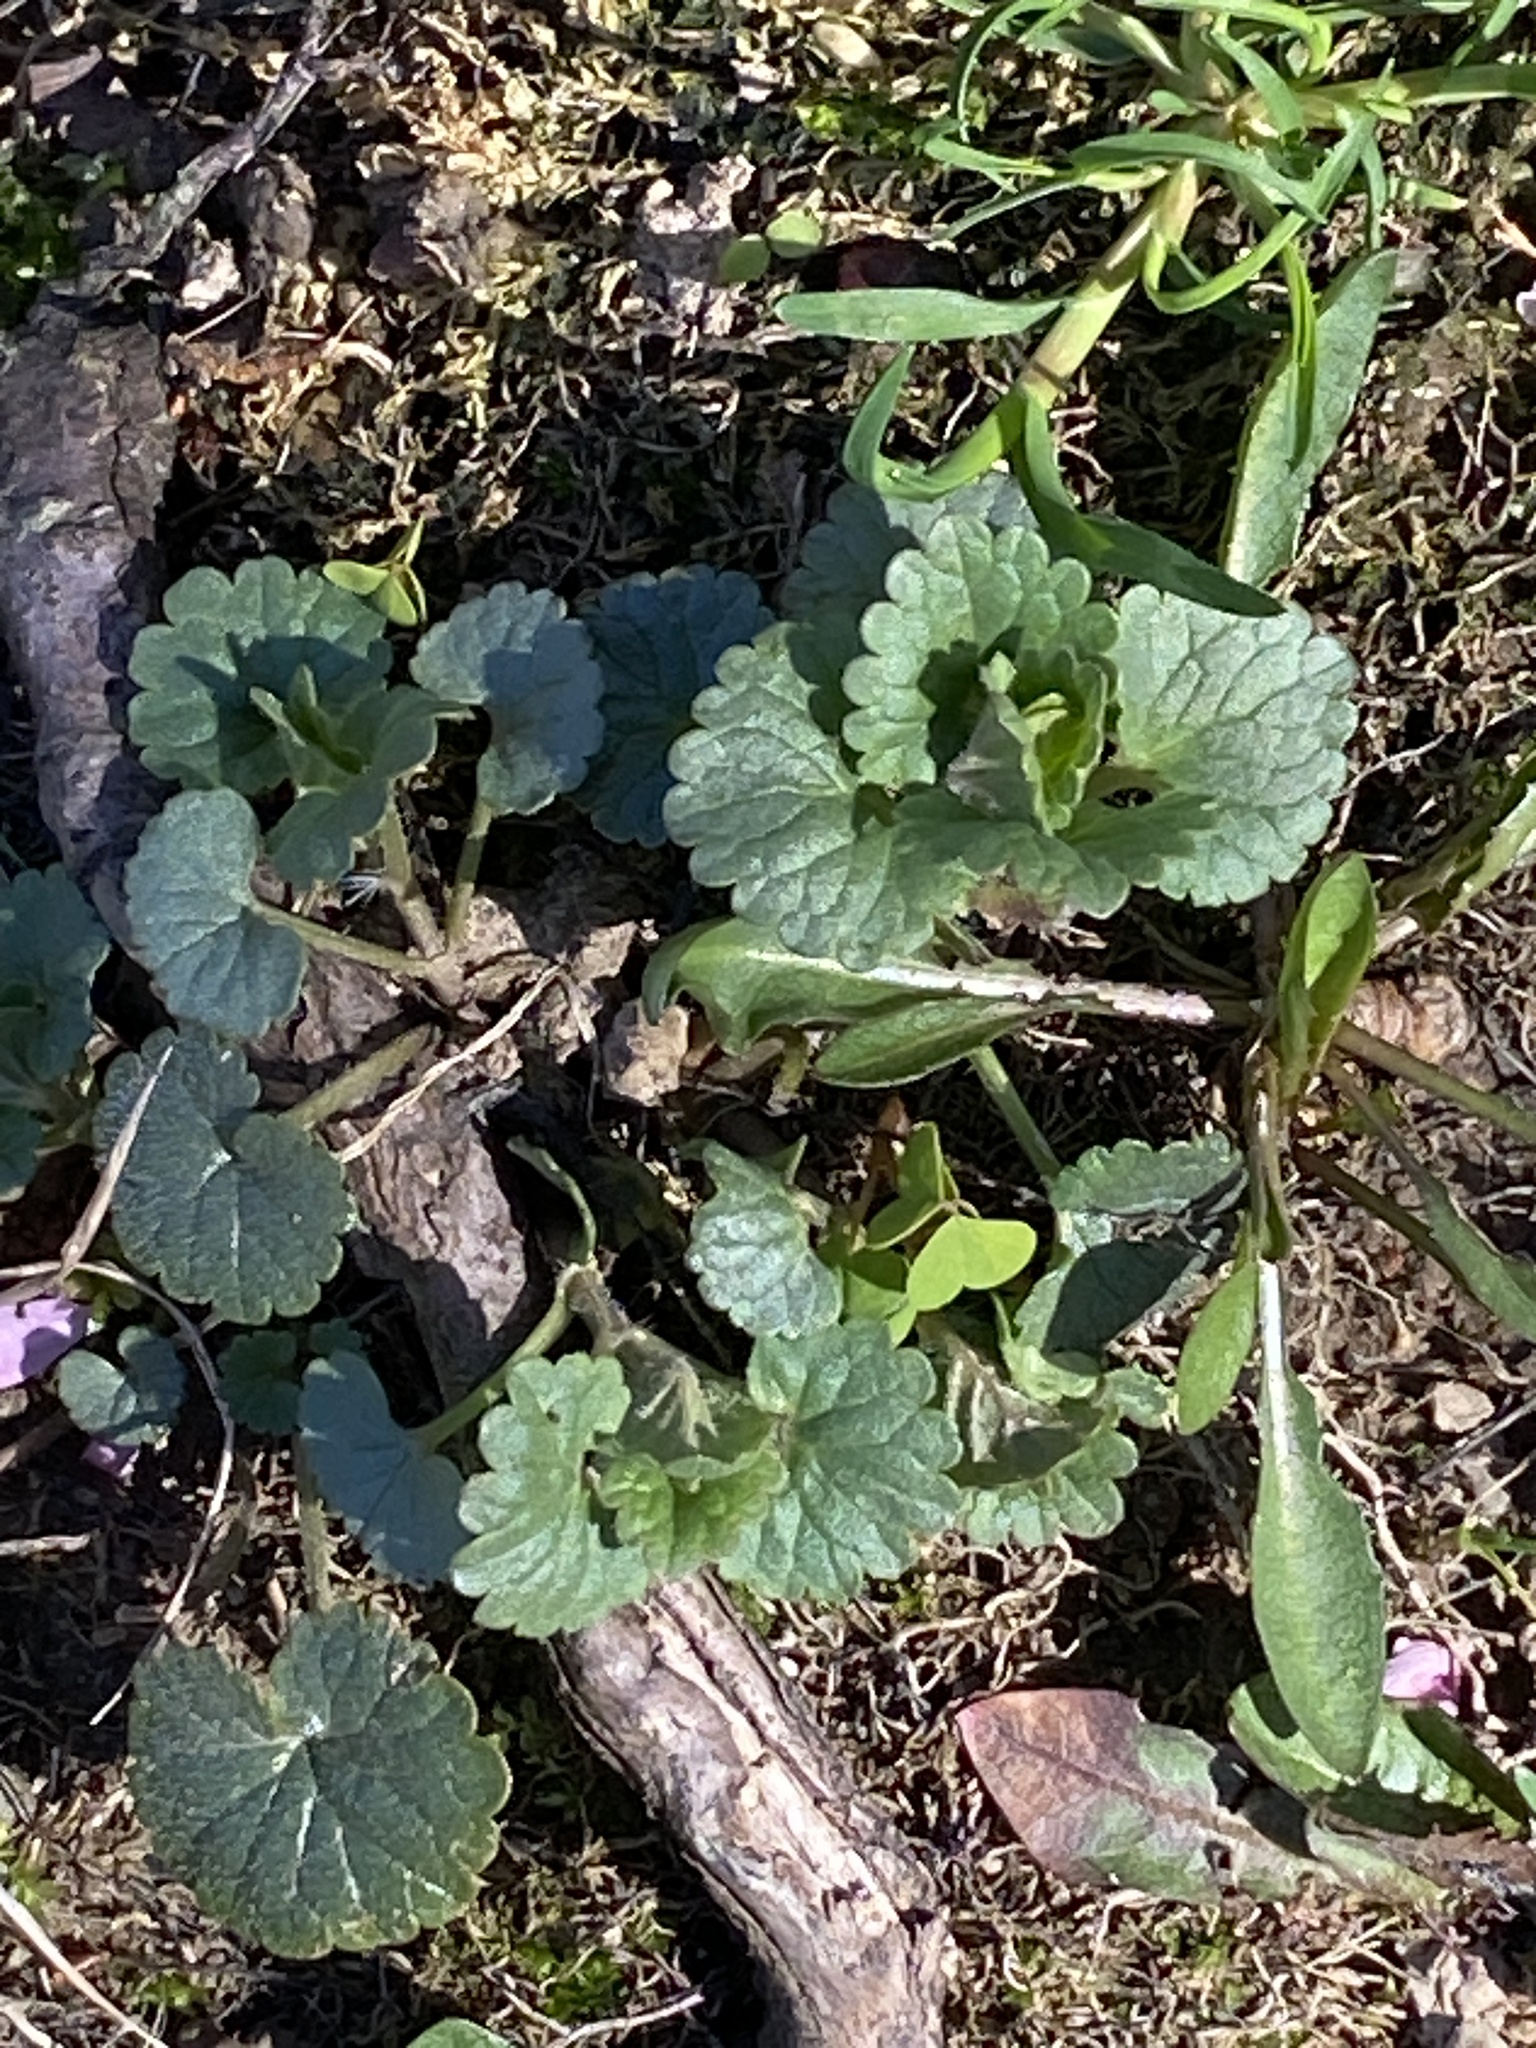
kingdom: Plantae
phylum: Tracheophyta
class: Magnoliopsida
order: Lamiales
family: Lamiaceae
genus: Glechoma
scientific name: Glechoma hederacea
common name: Ground ivy
